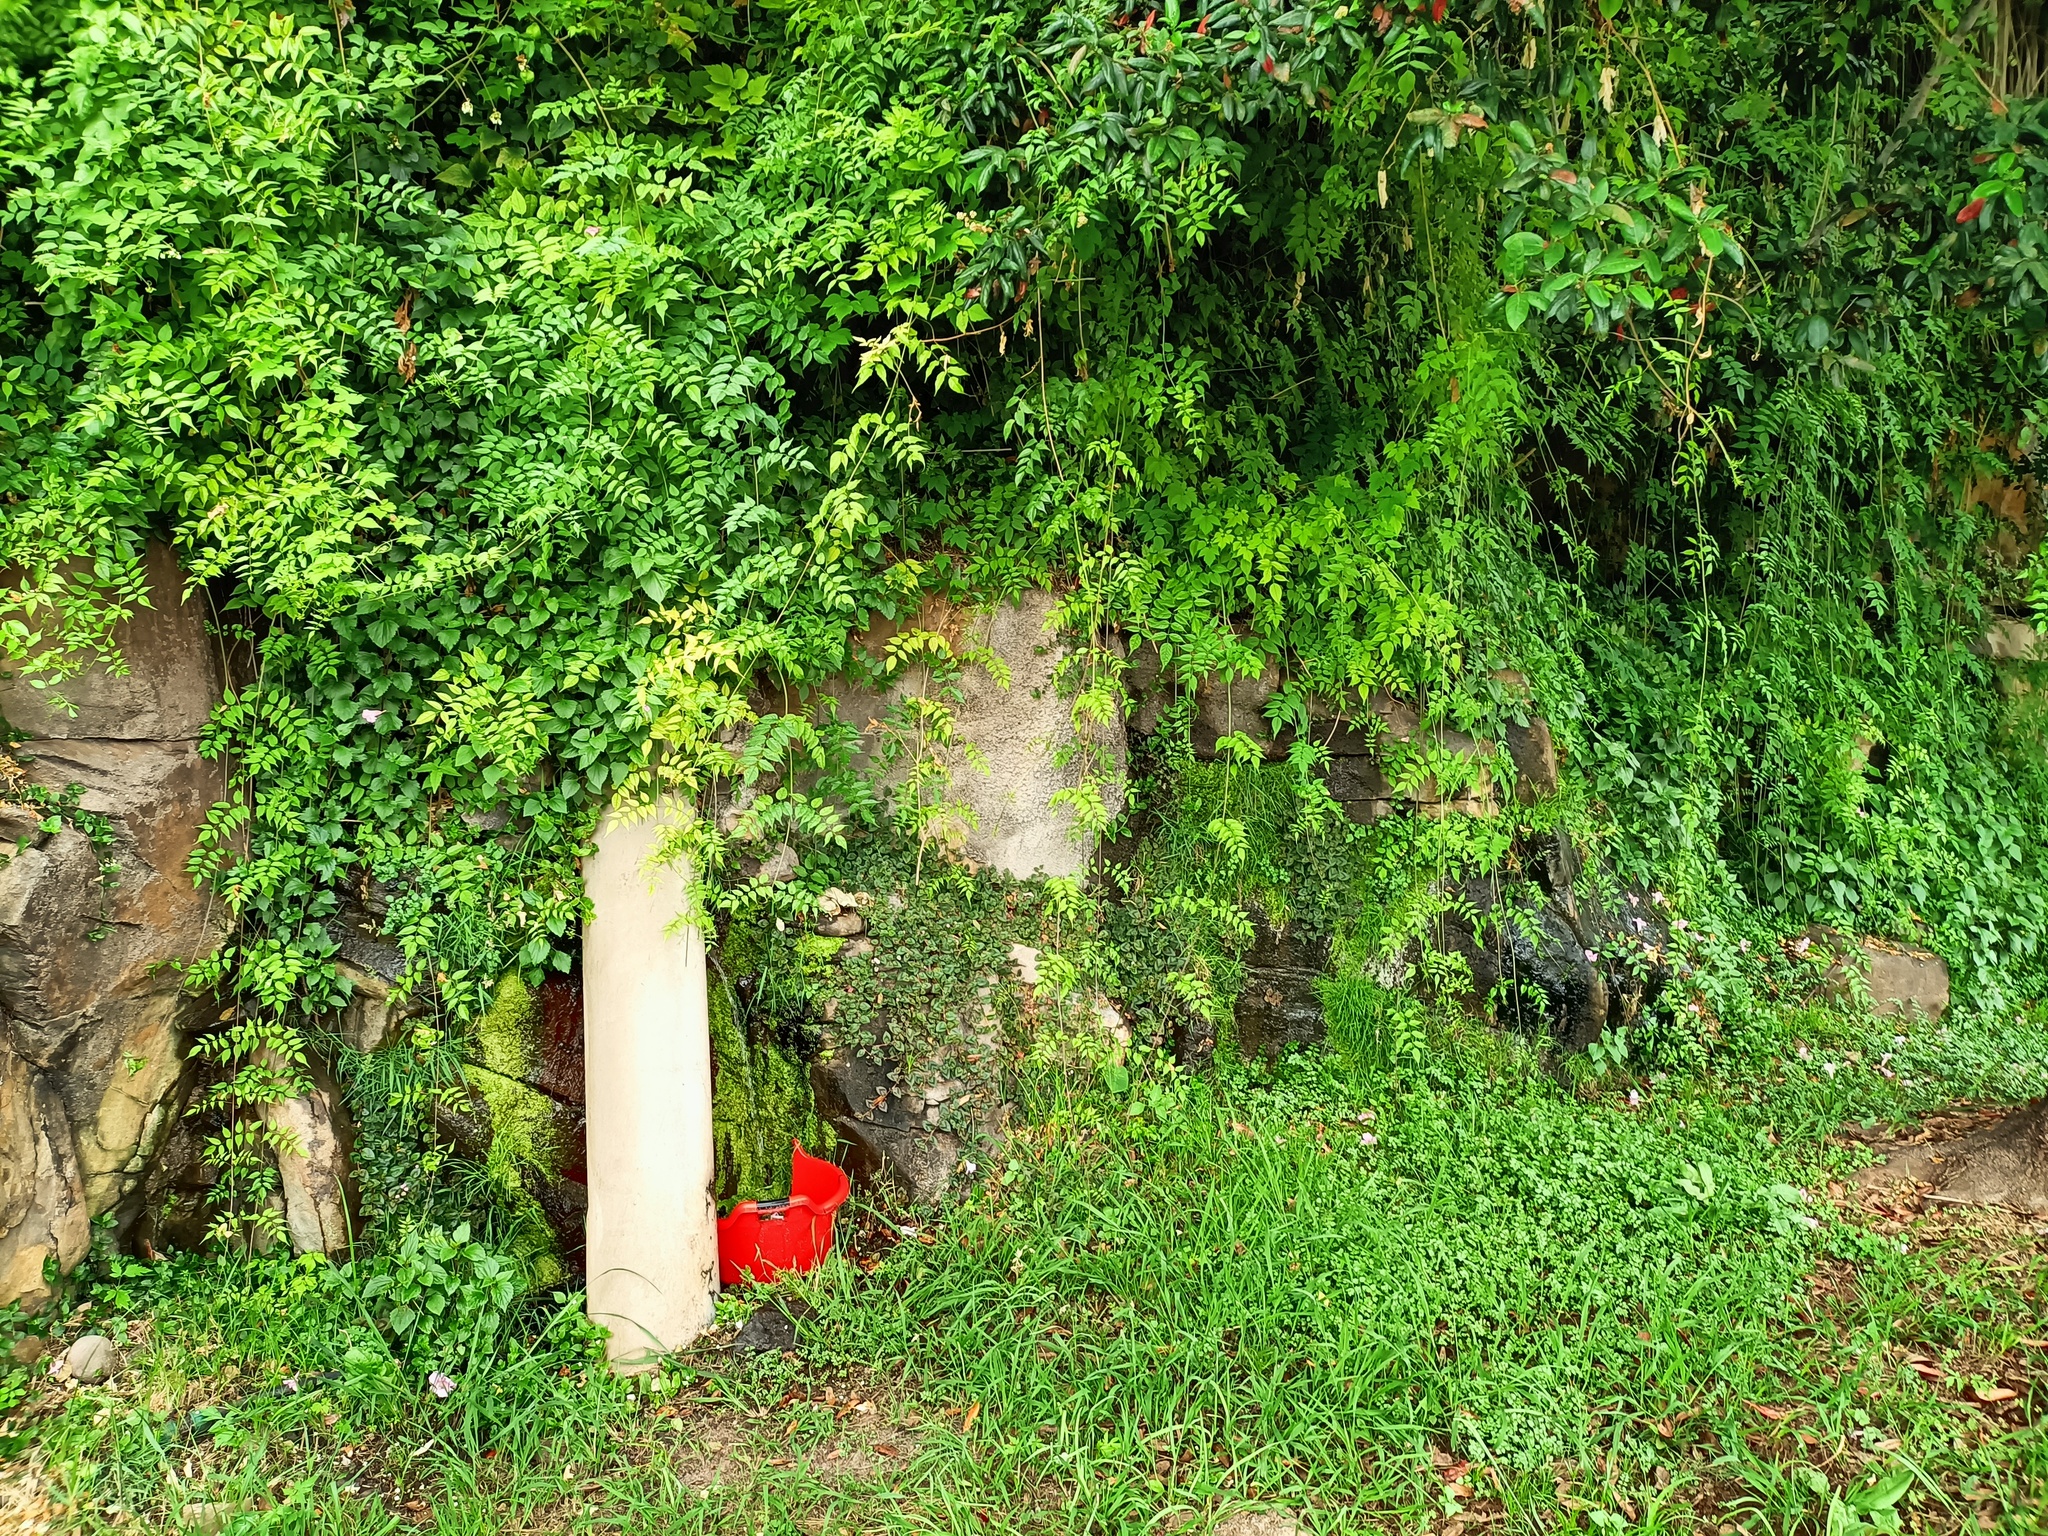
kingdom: Plantae
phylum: Tracheophyta
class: Magnoliopsida
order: Lamiales
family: Bignoniaceae
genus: Podranea
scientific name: Podranea ricasoliana
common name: Zimbabwe creeper
